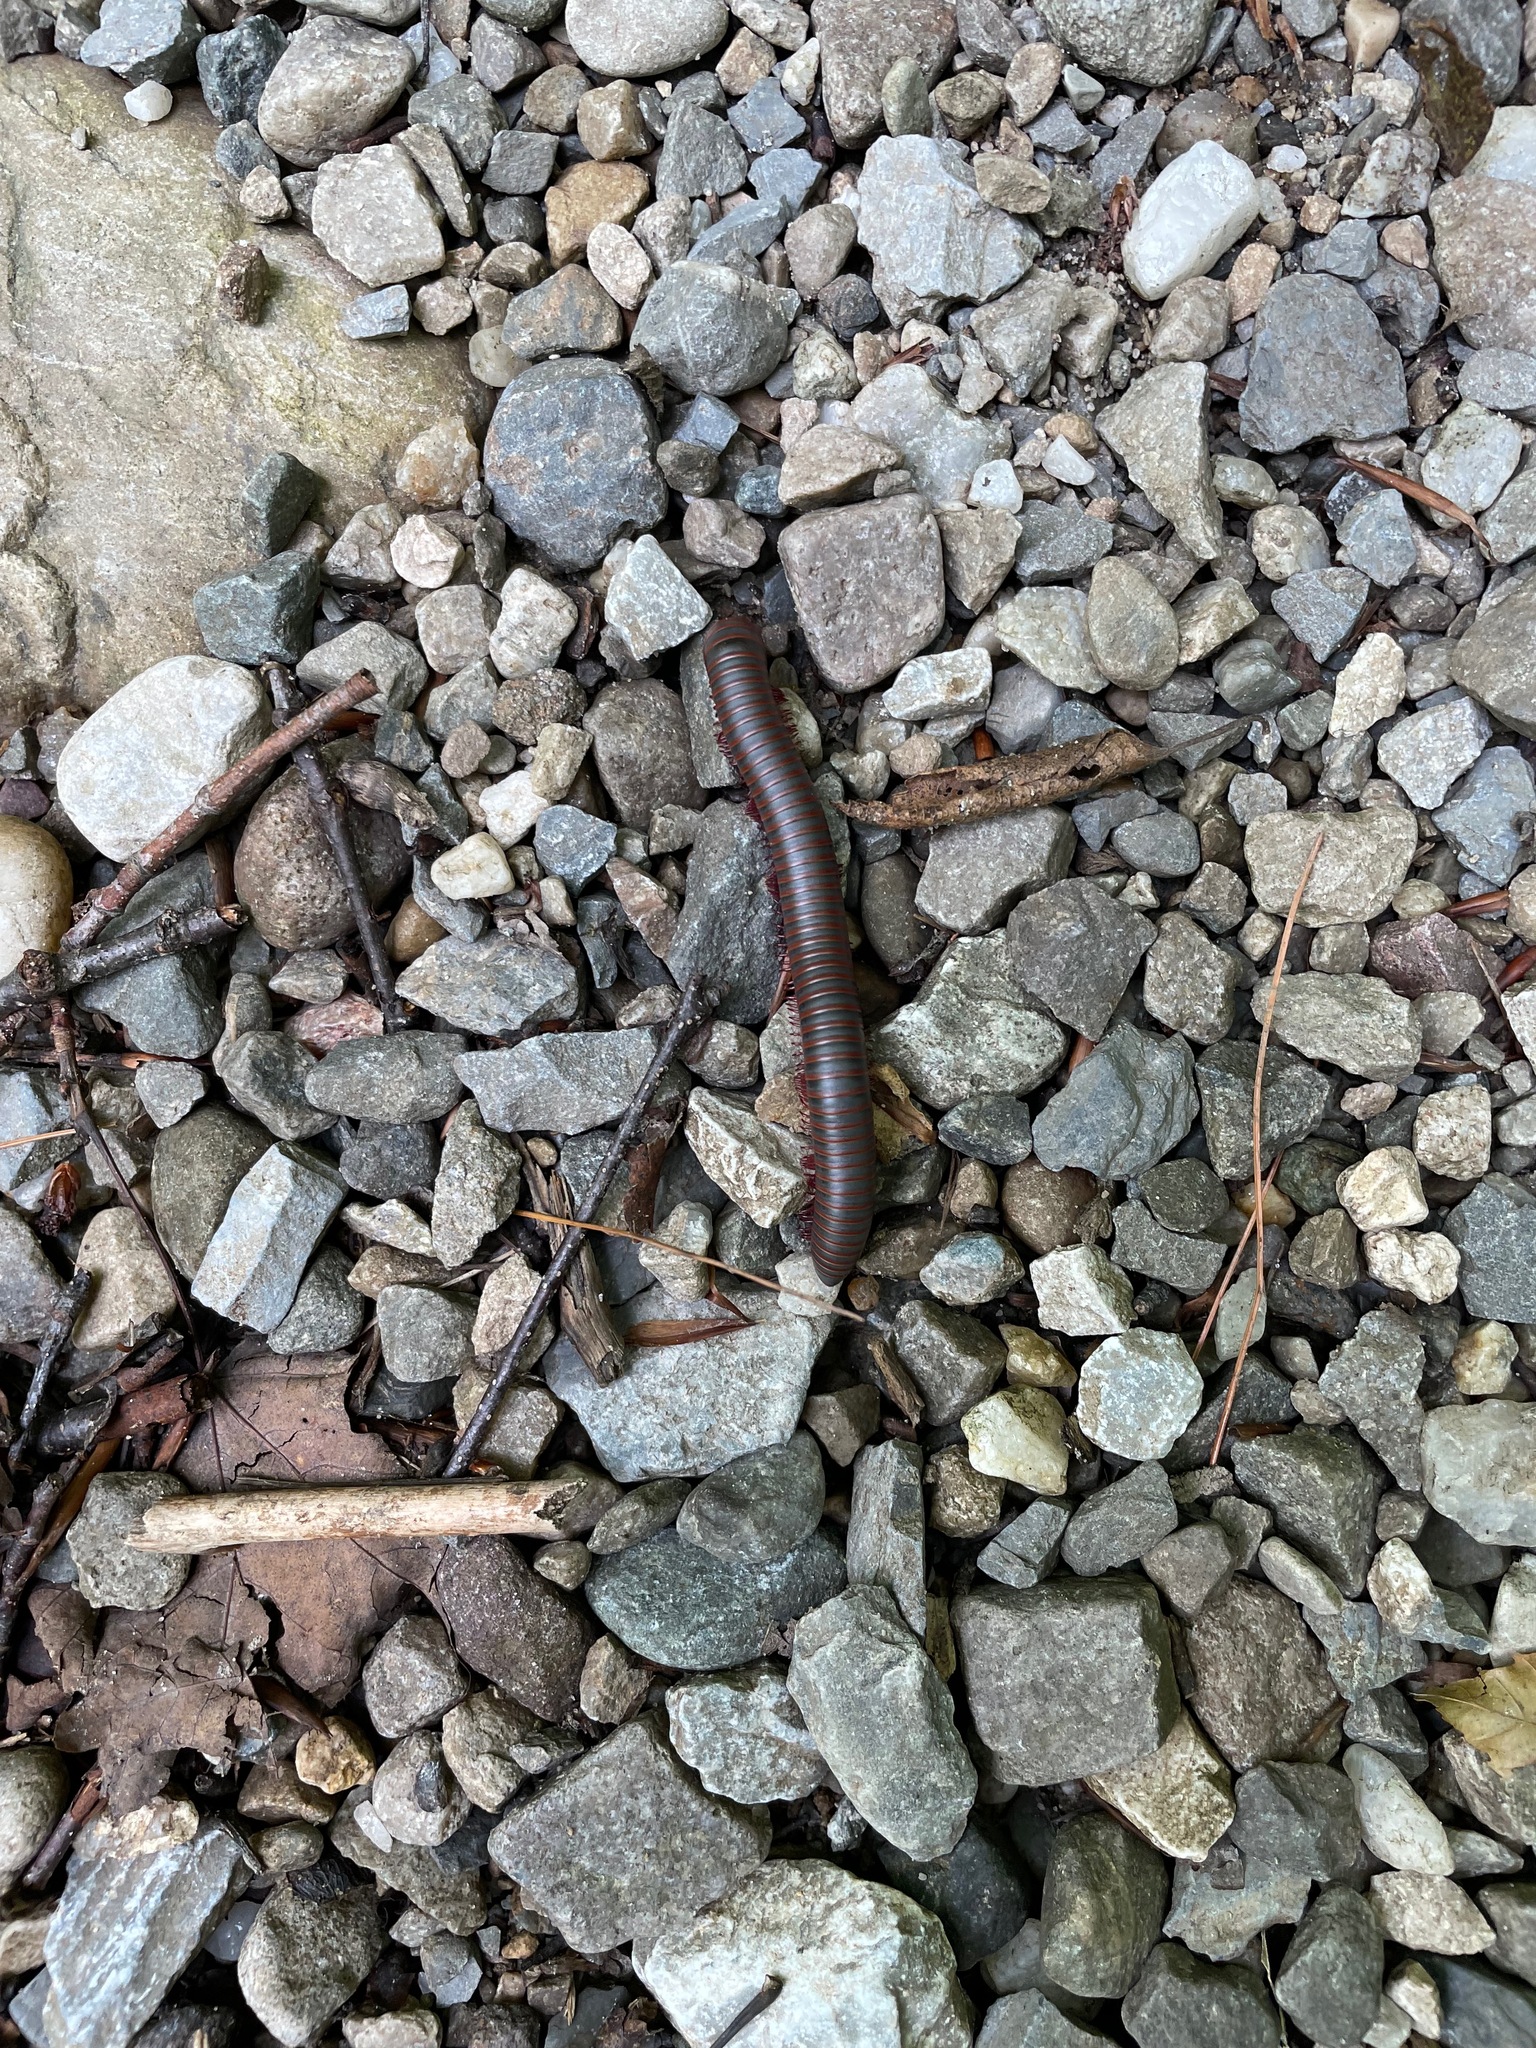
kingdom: Animalia
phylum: Arthropoda
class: Diplopoda
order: Spirobolida
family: Spirobolidae
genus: Narceus
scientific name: Narceus
